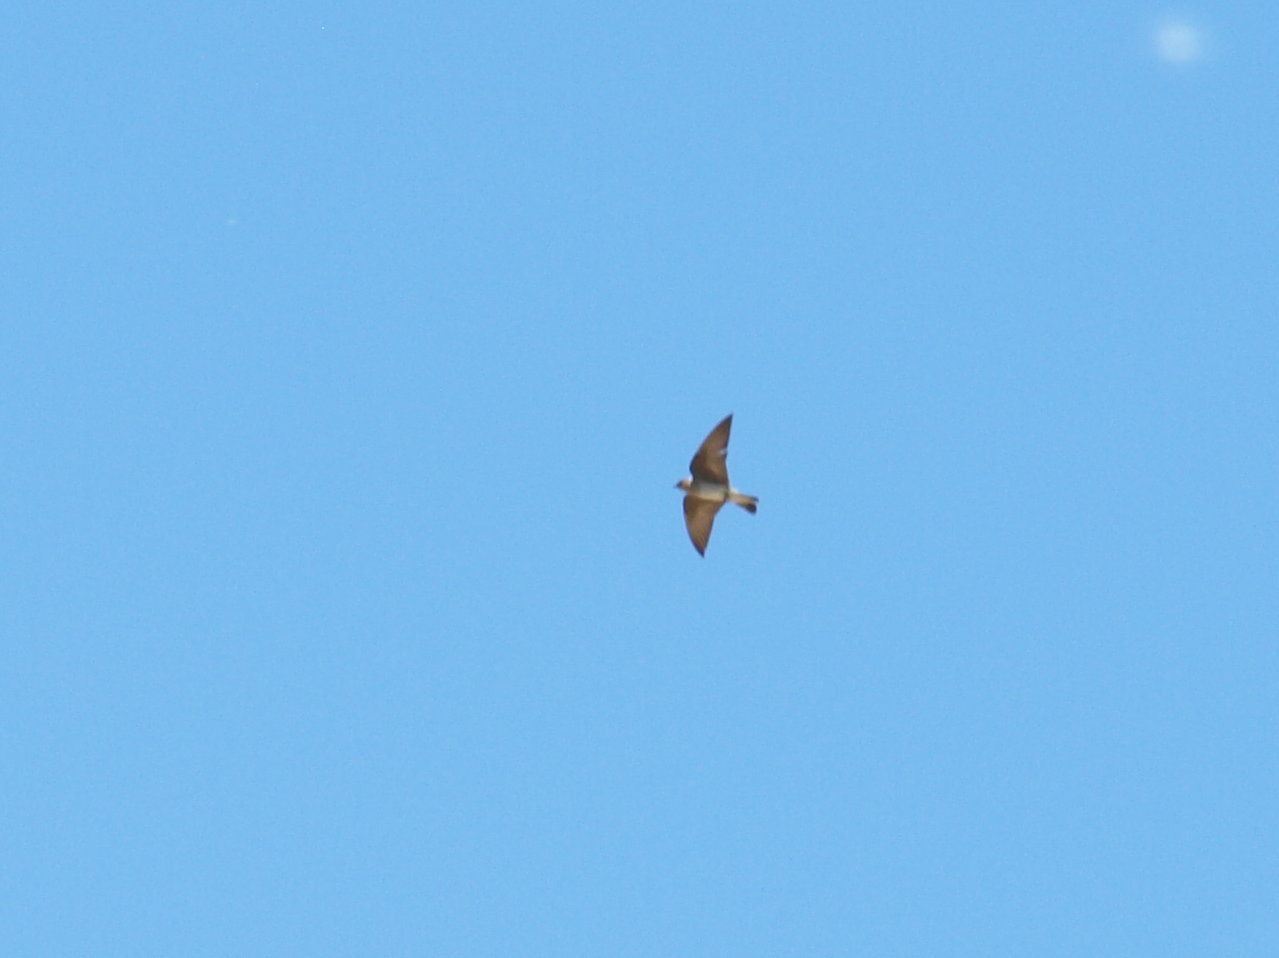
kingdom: Animalia
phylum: Chordata
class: Aves
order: Passeriformes
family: Hirundinidae
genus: Stelgidopteryx
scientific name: Stelgidopteryx serripennis
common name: Northern rough-winged swallow
